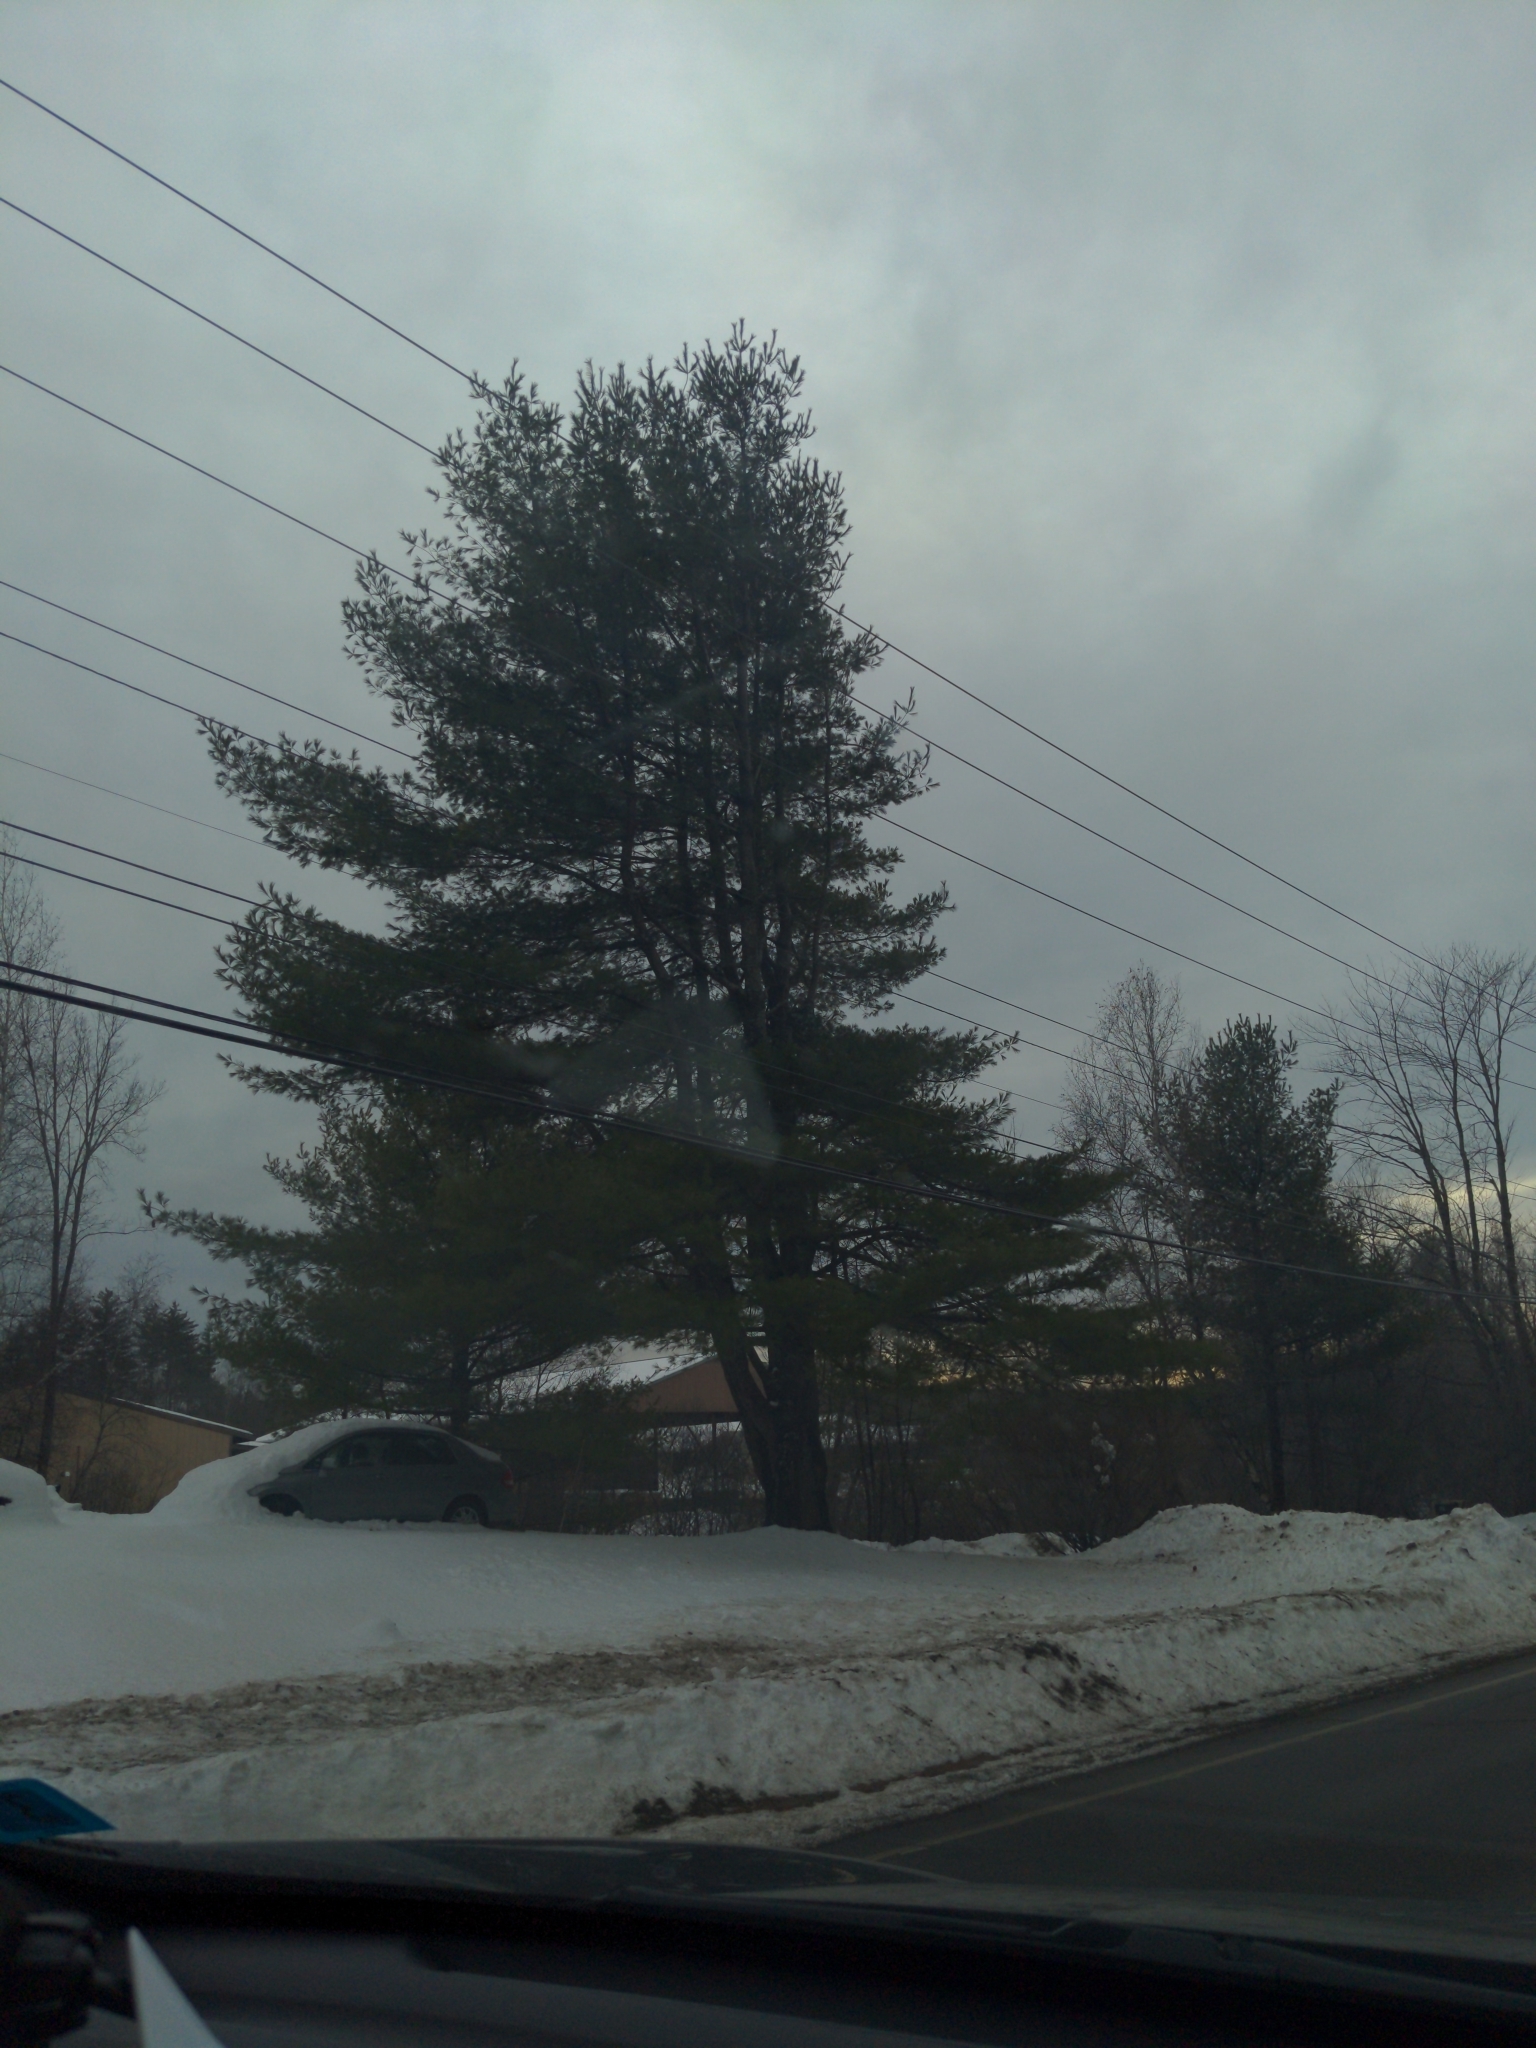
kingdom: Plantae
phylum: Tracheophyta
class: Pinopsida
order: Pinales
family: Pinaceae
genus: Pinus
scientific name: Pinus strobus
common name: Weymouth pine
